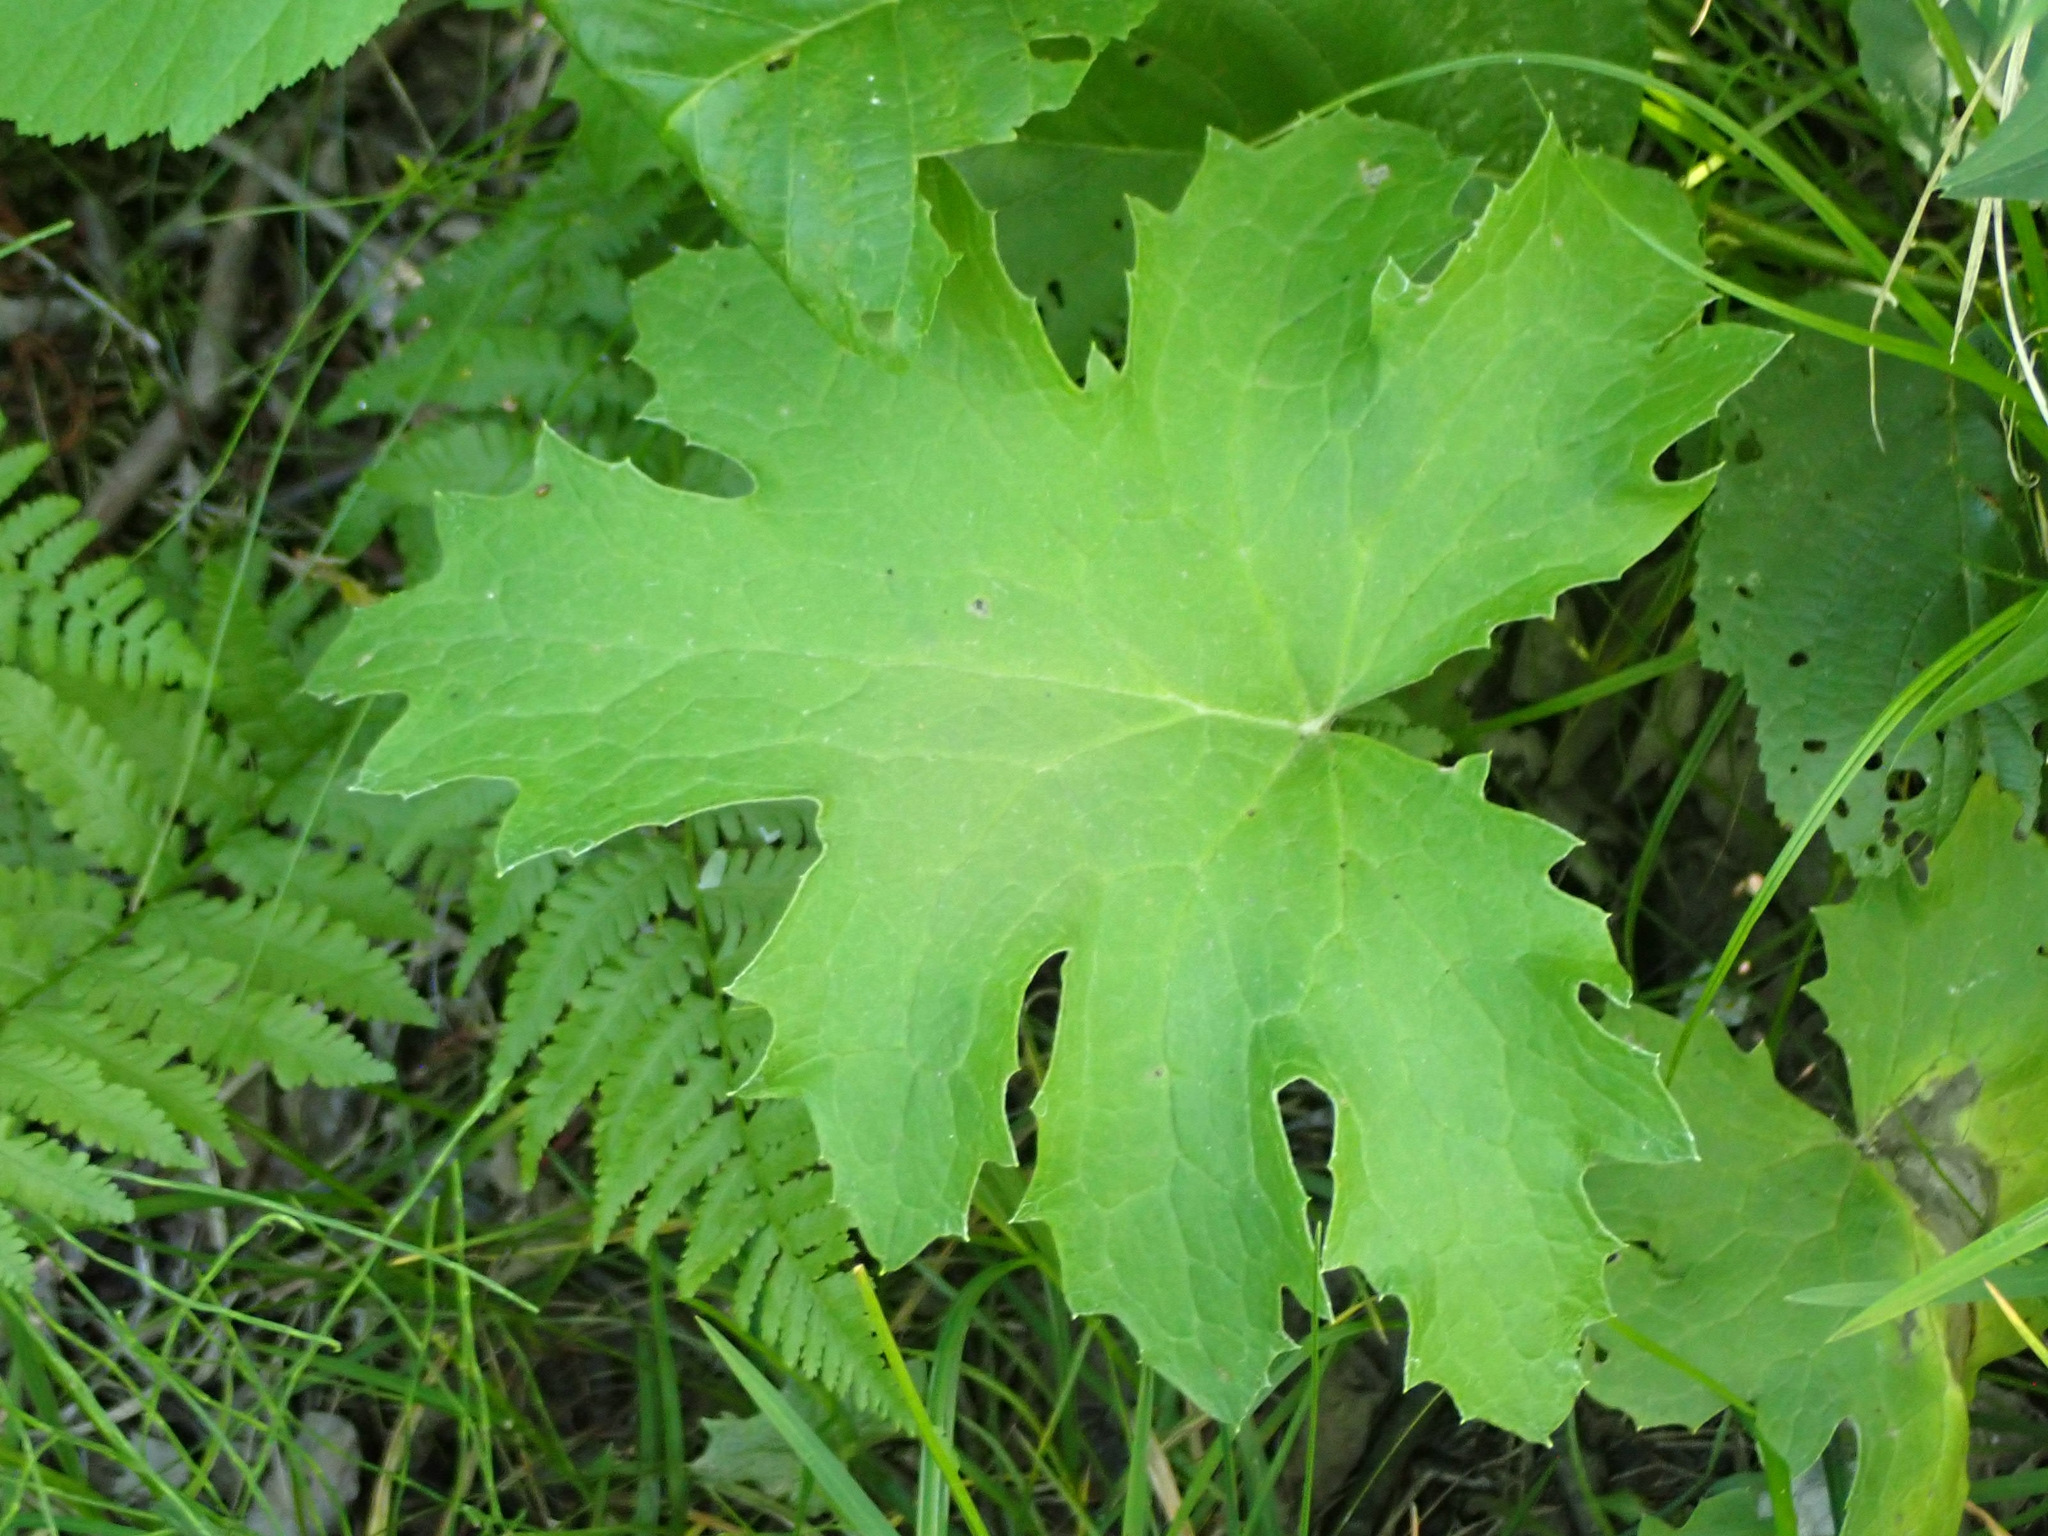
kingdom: Plantae
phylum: Tracheophyta
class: Magnoliopsida
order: Asterales
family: Asteraceae
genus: Petasites
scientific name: Petasites frigidus
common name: Arctic butterbur
